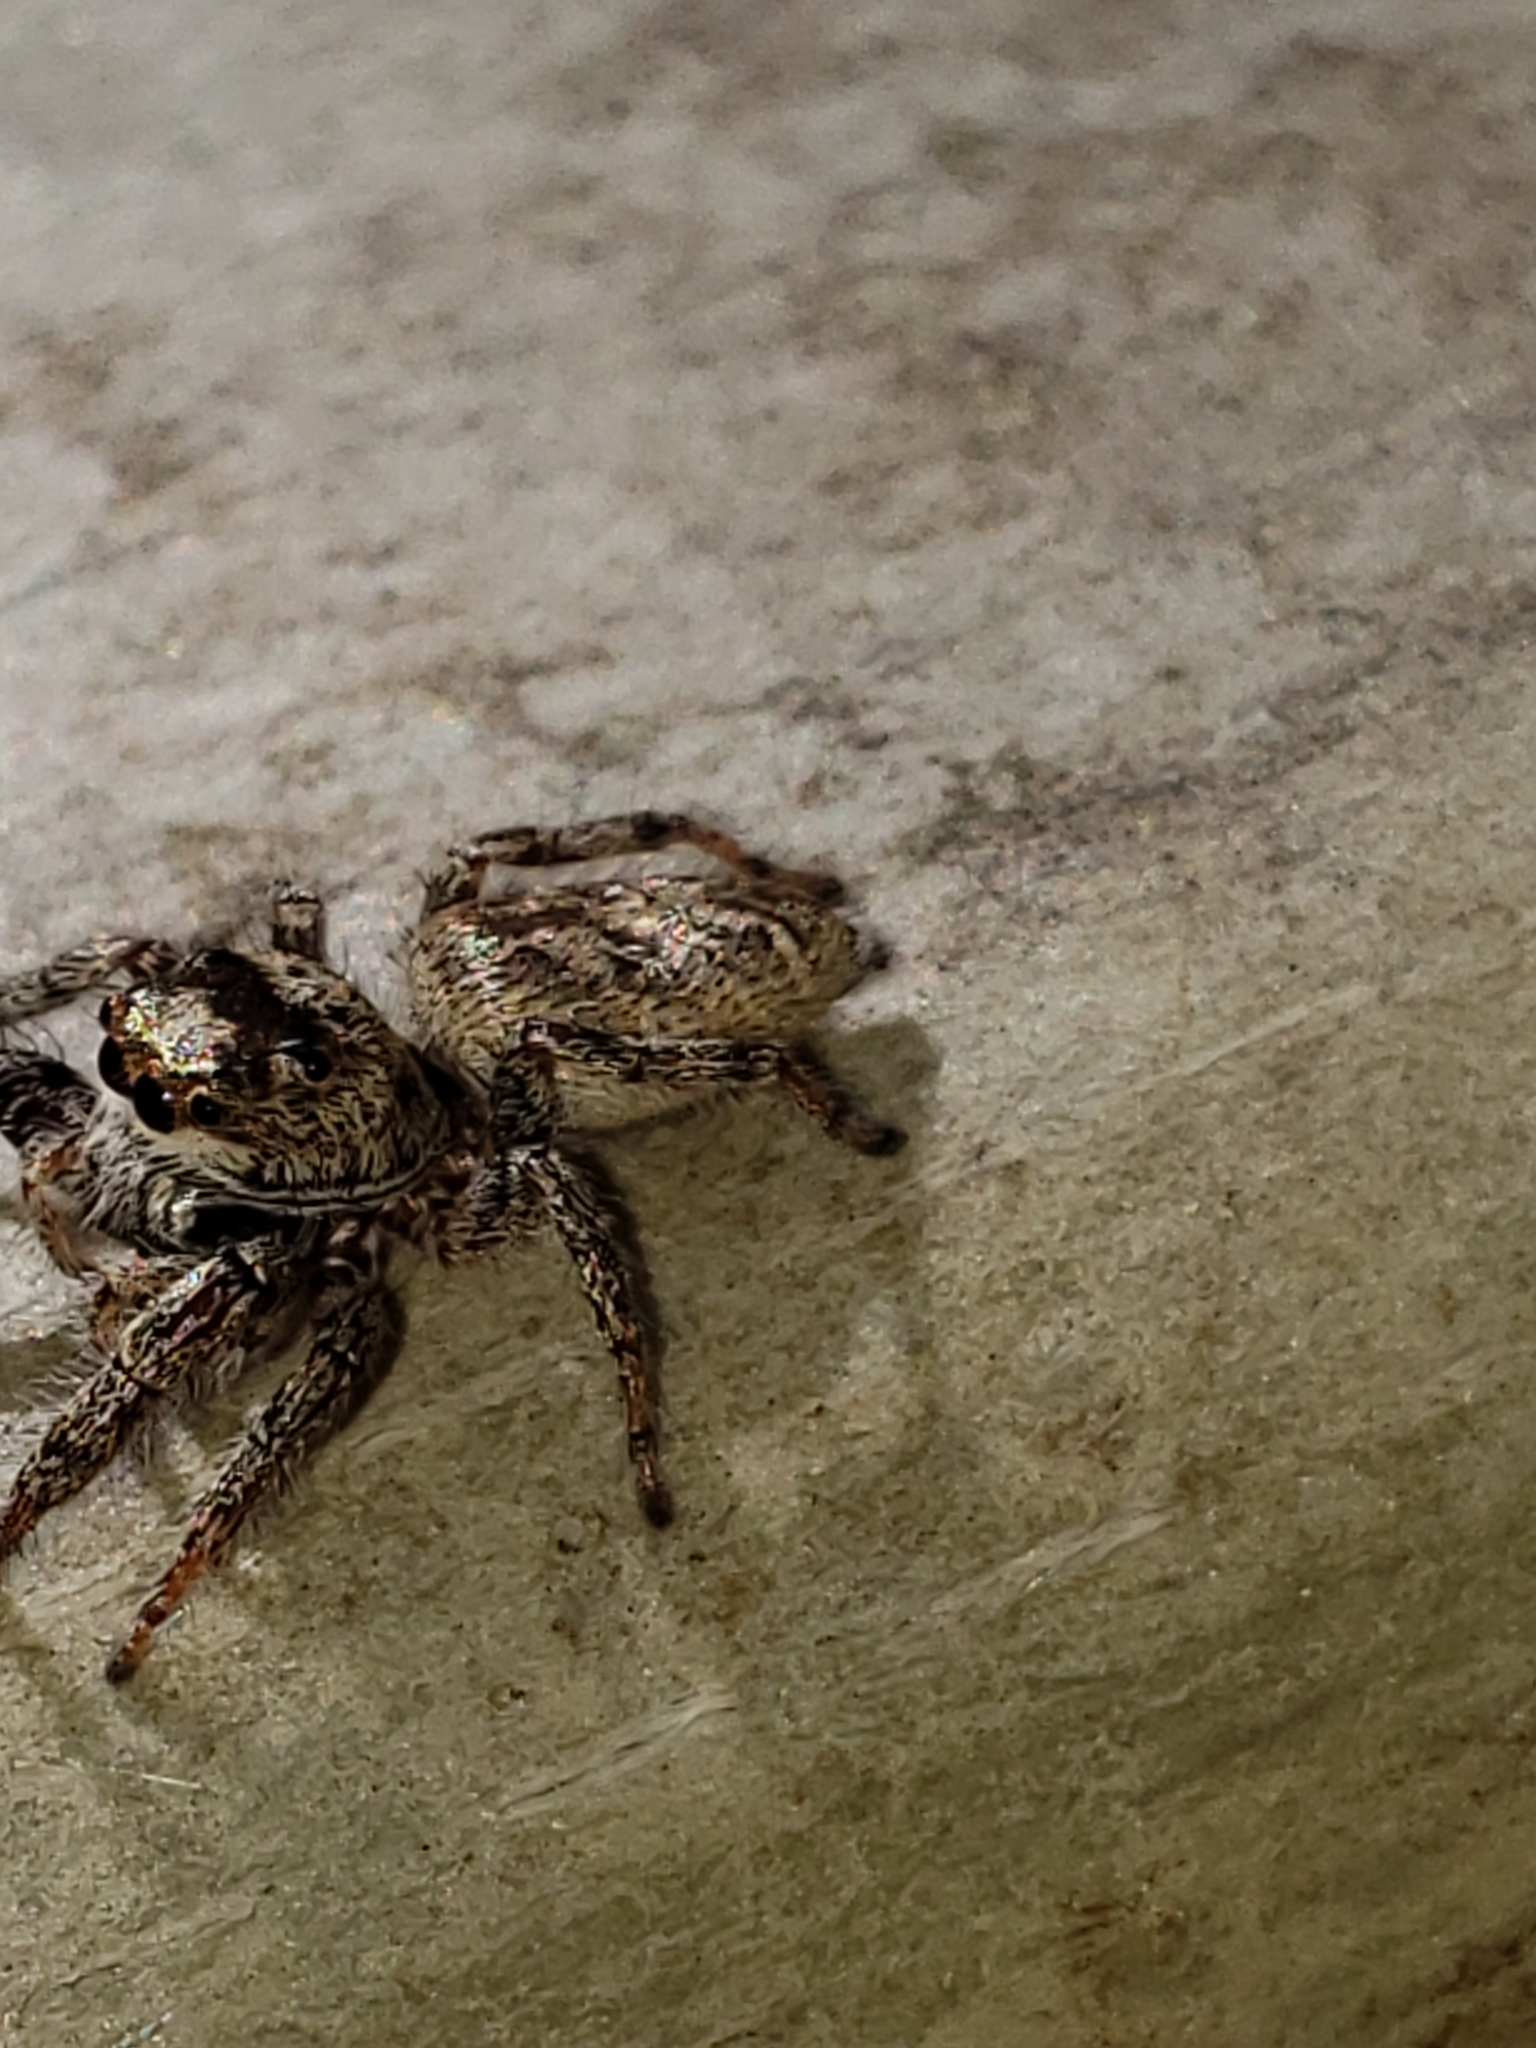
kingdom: Animalia
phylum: Arthropoda
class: Arachnida
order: Araneae
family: Salticidae
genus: Eris
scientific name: Eris militaris
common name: Bronze jumper
